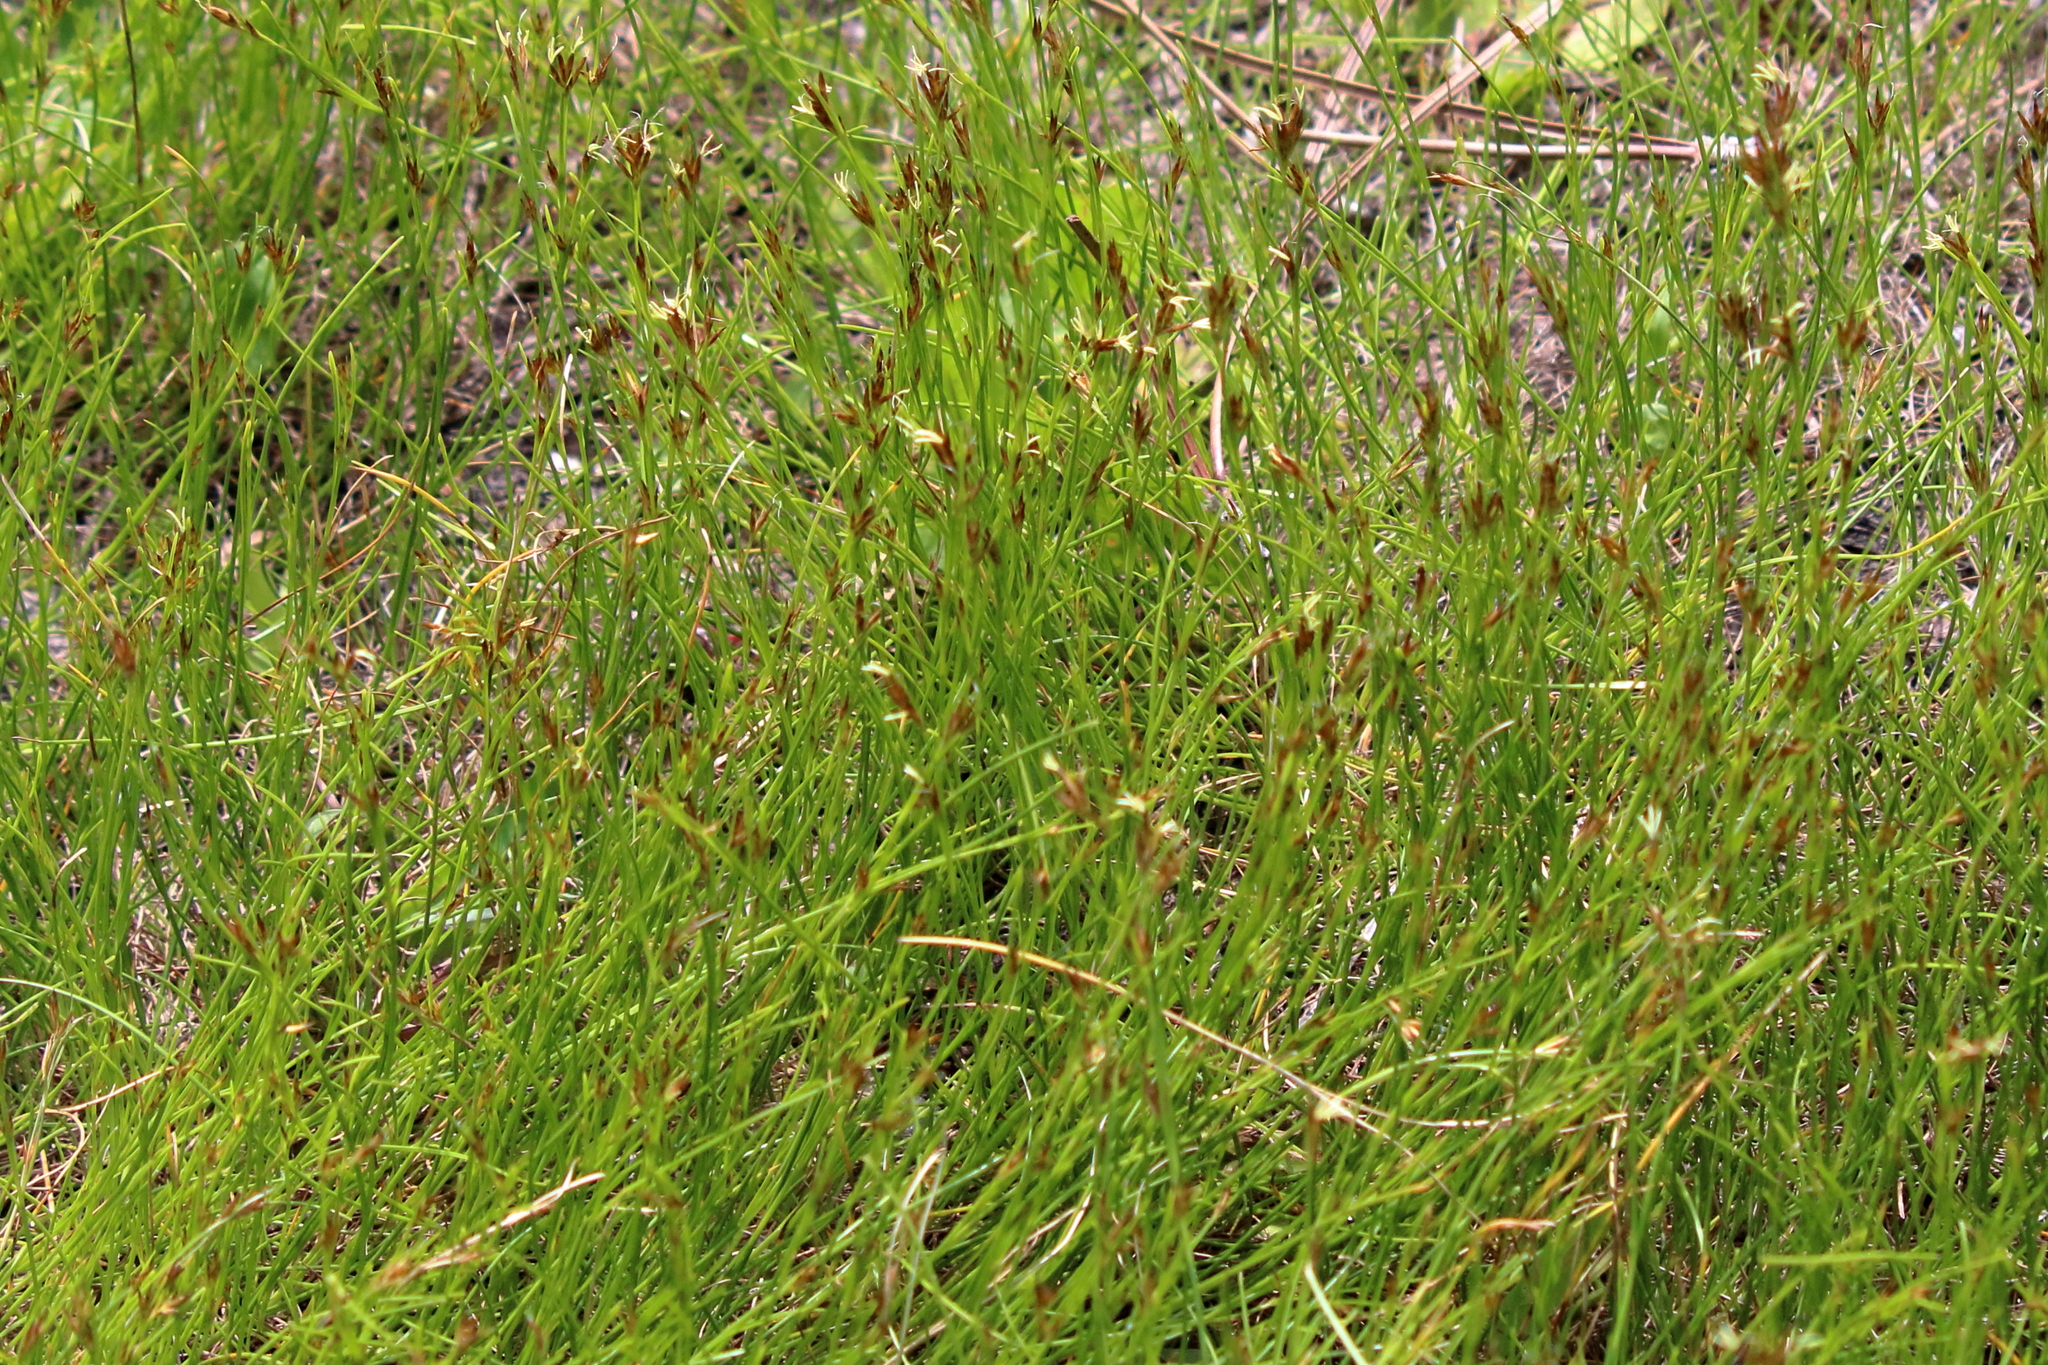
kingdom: Plantae
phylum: Tracheophyta
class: Liliopsida
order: Poales
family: Cyperaceae
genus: Rhynchospora
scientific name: Rhynchospora curtissii
